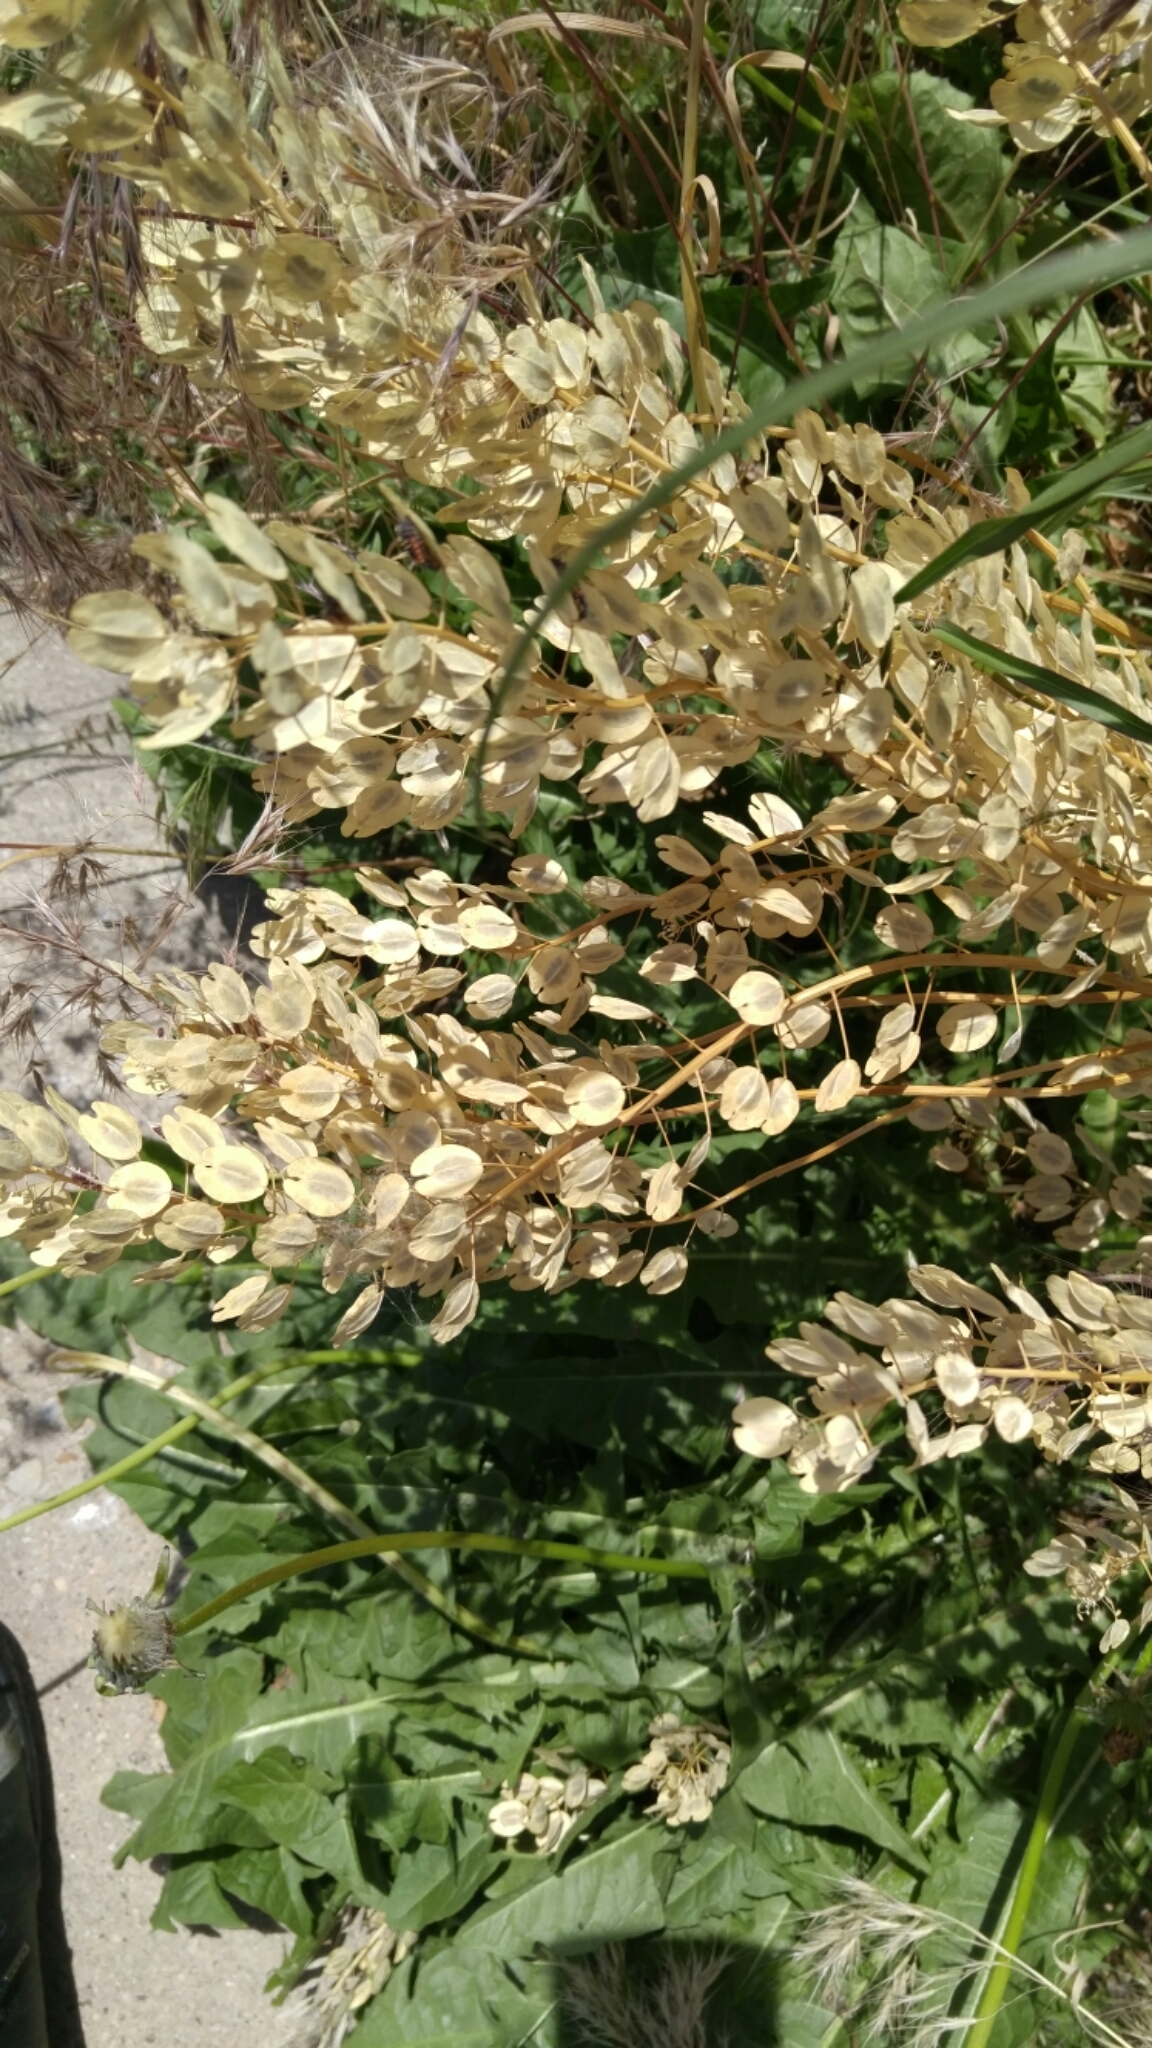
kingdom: Plantae
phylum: Tracheophyta
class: Magnoliopsida
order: Brassicales
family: Brassicaceae
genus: Thlaspi
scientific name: Thlaspi arvense
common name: Field pennycress
